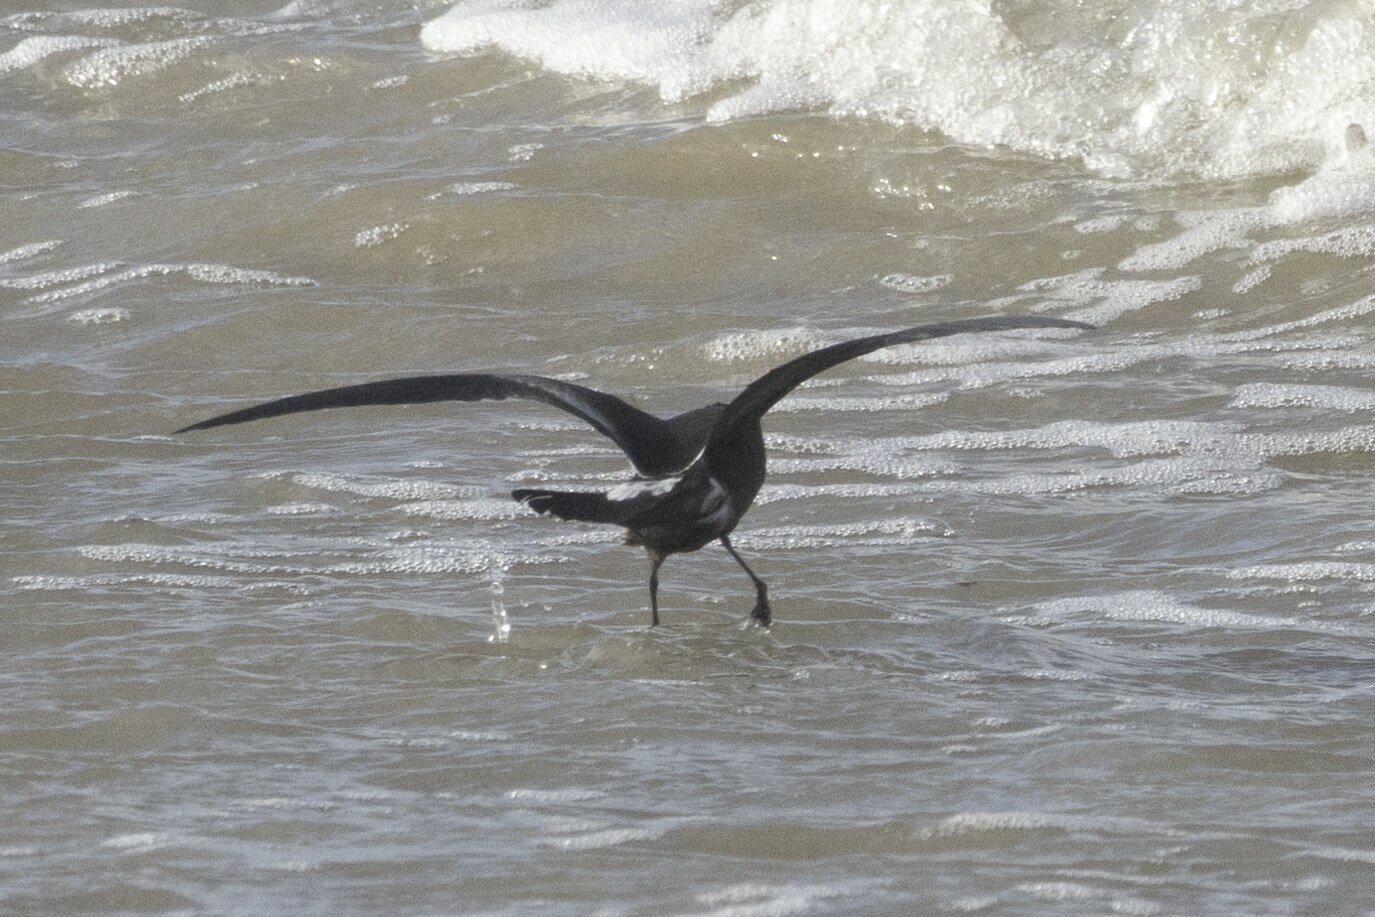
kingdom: Animalia
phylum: Chordata
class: Aves
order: Procellariiformes
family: Hydrobatidae
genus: Oceanodroma
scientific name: Oceanodroma leucorhoa
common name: Leach's storm-petrel
